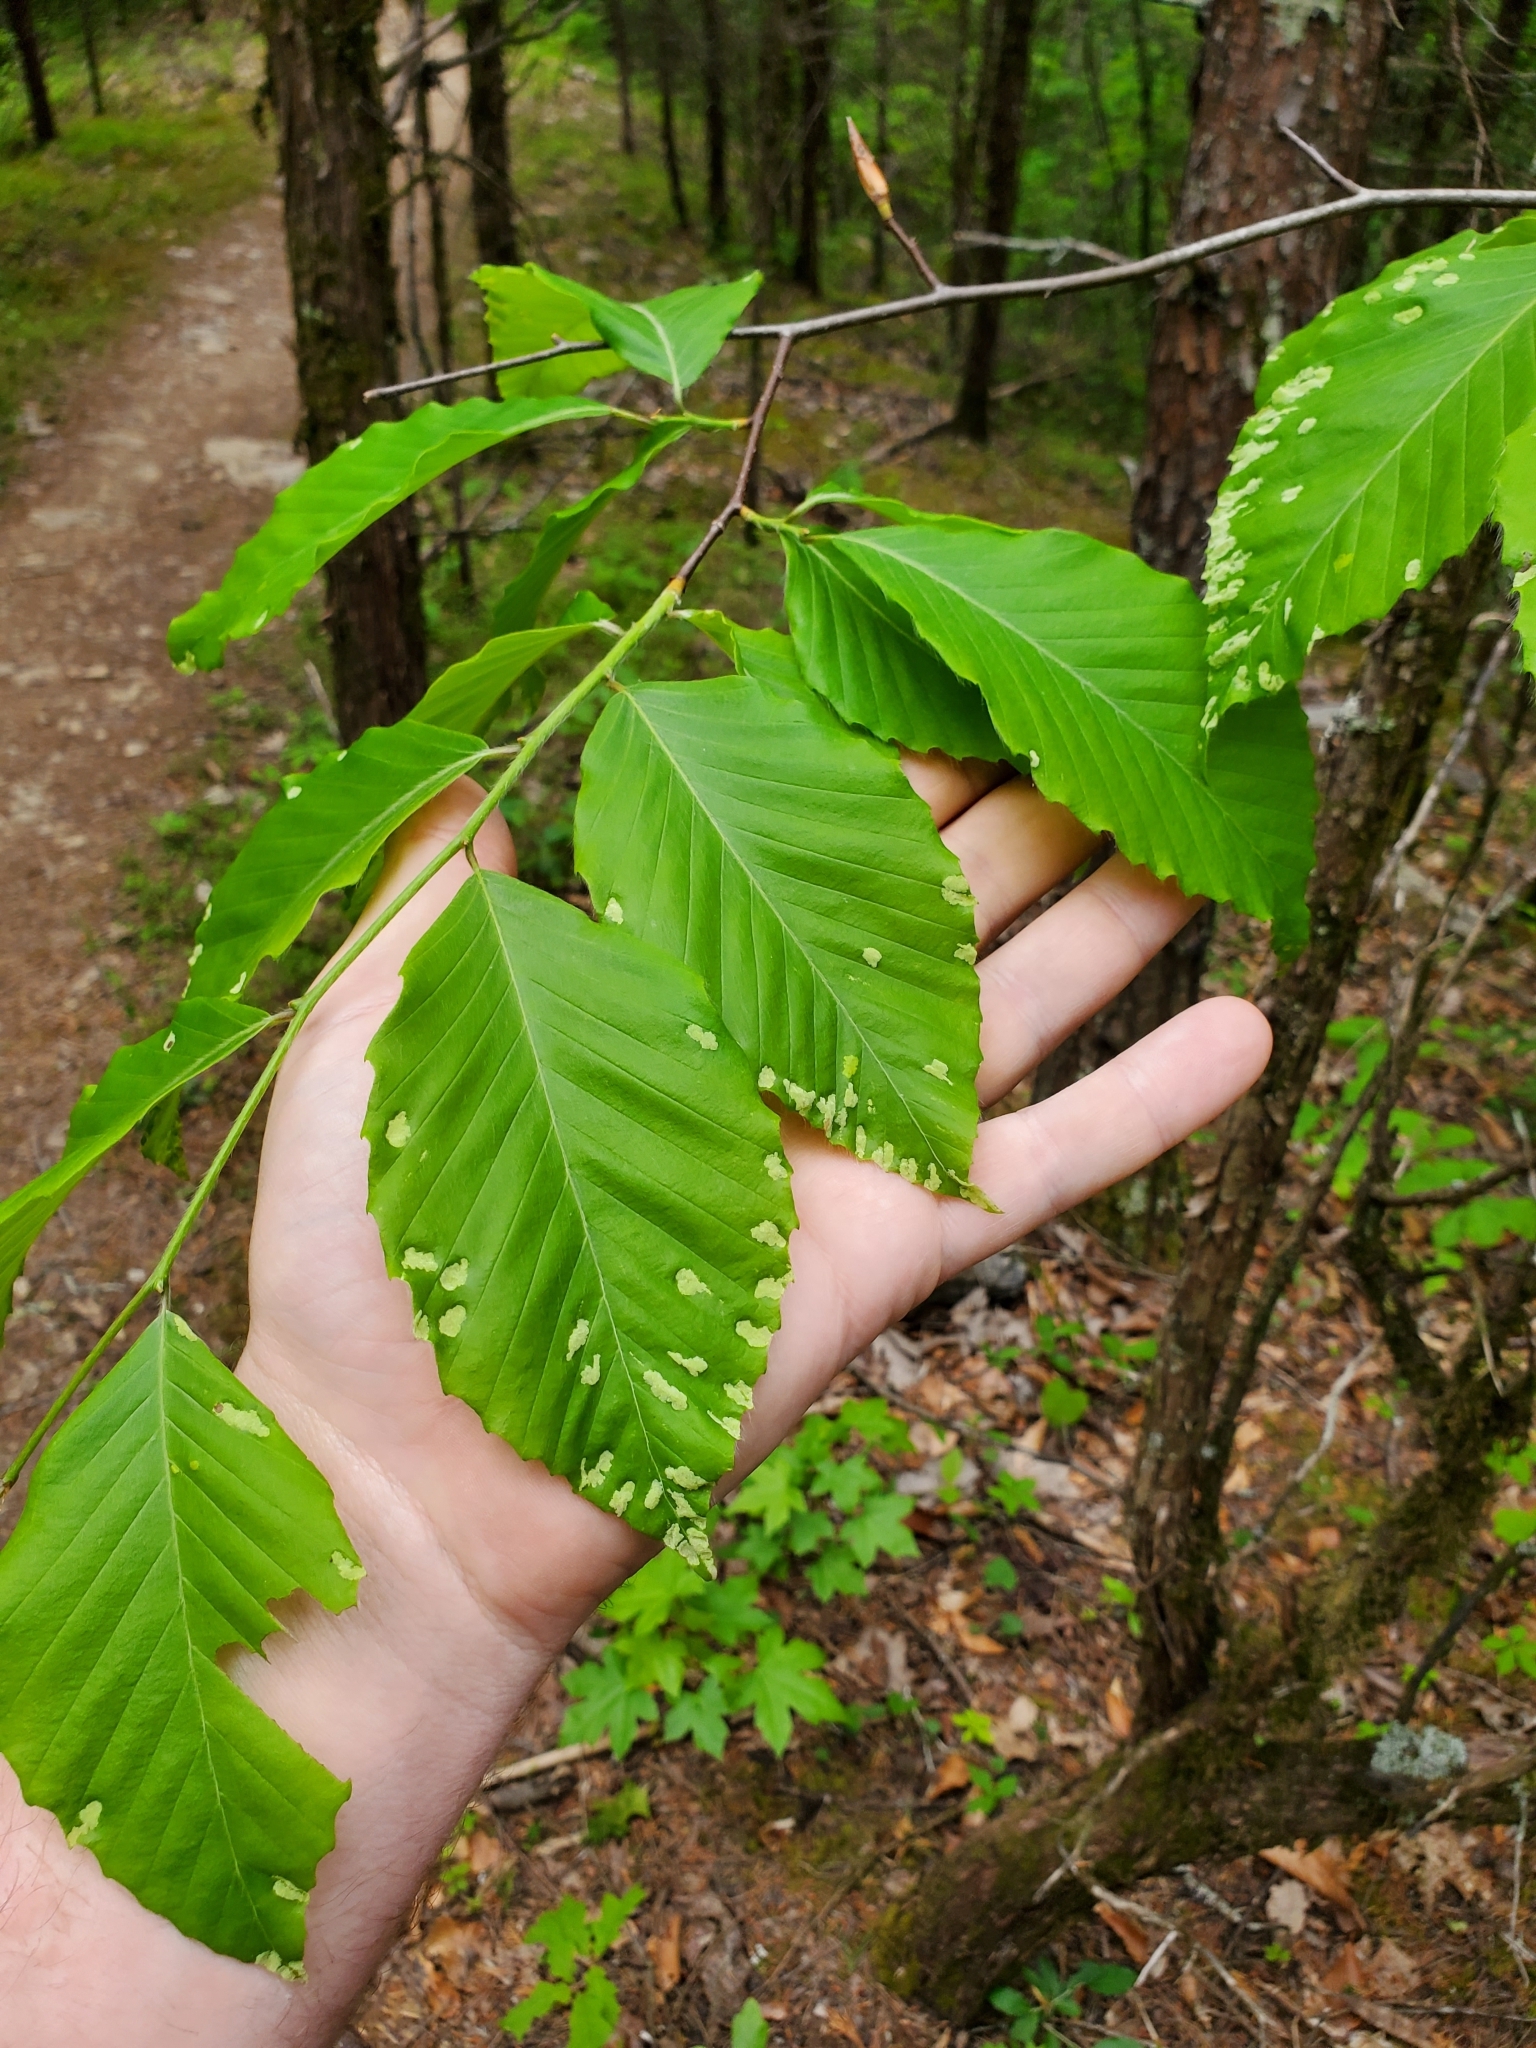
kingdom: Animalia
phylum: Arthropoda
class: Arachnida
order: Trombidiformes
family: Eriophyidae
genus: Acalitus
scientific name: Acalitus
